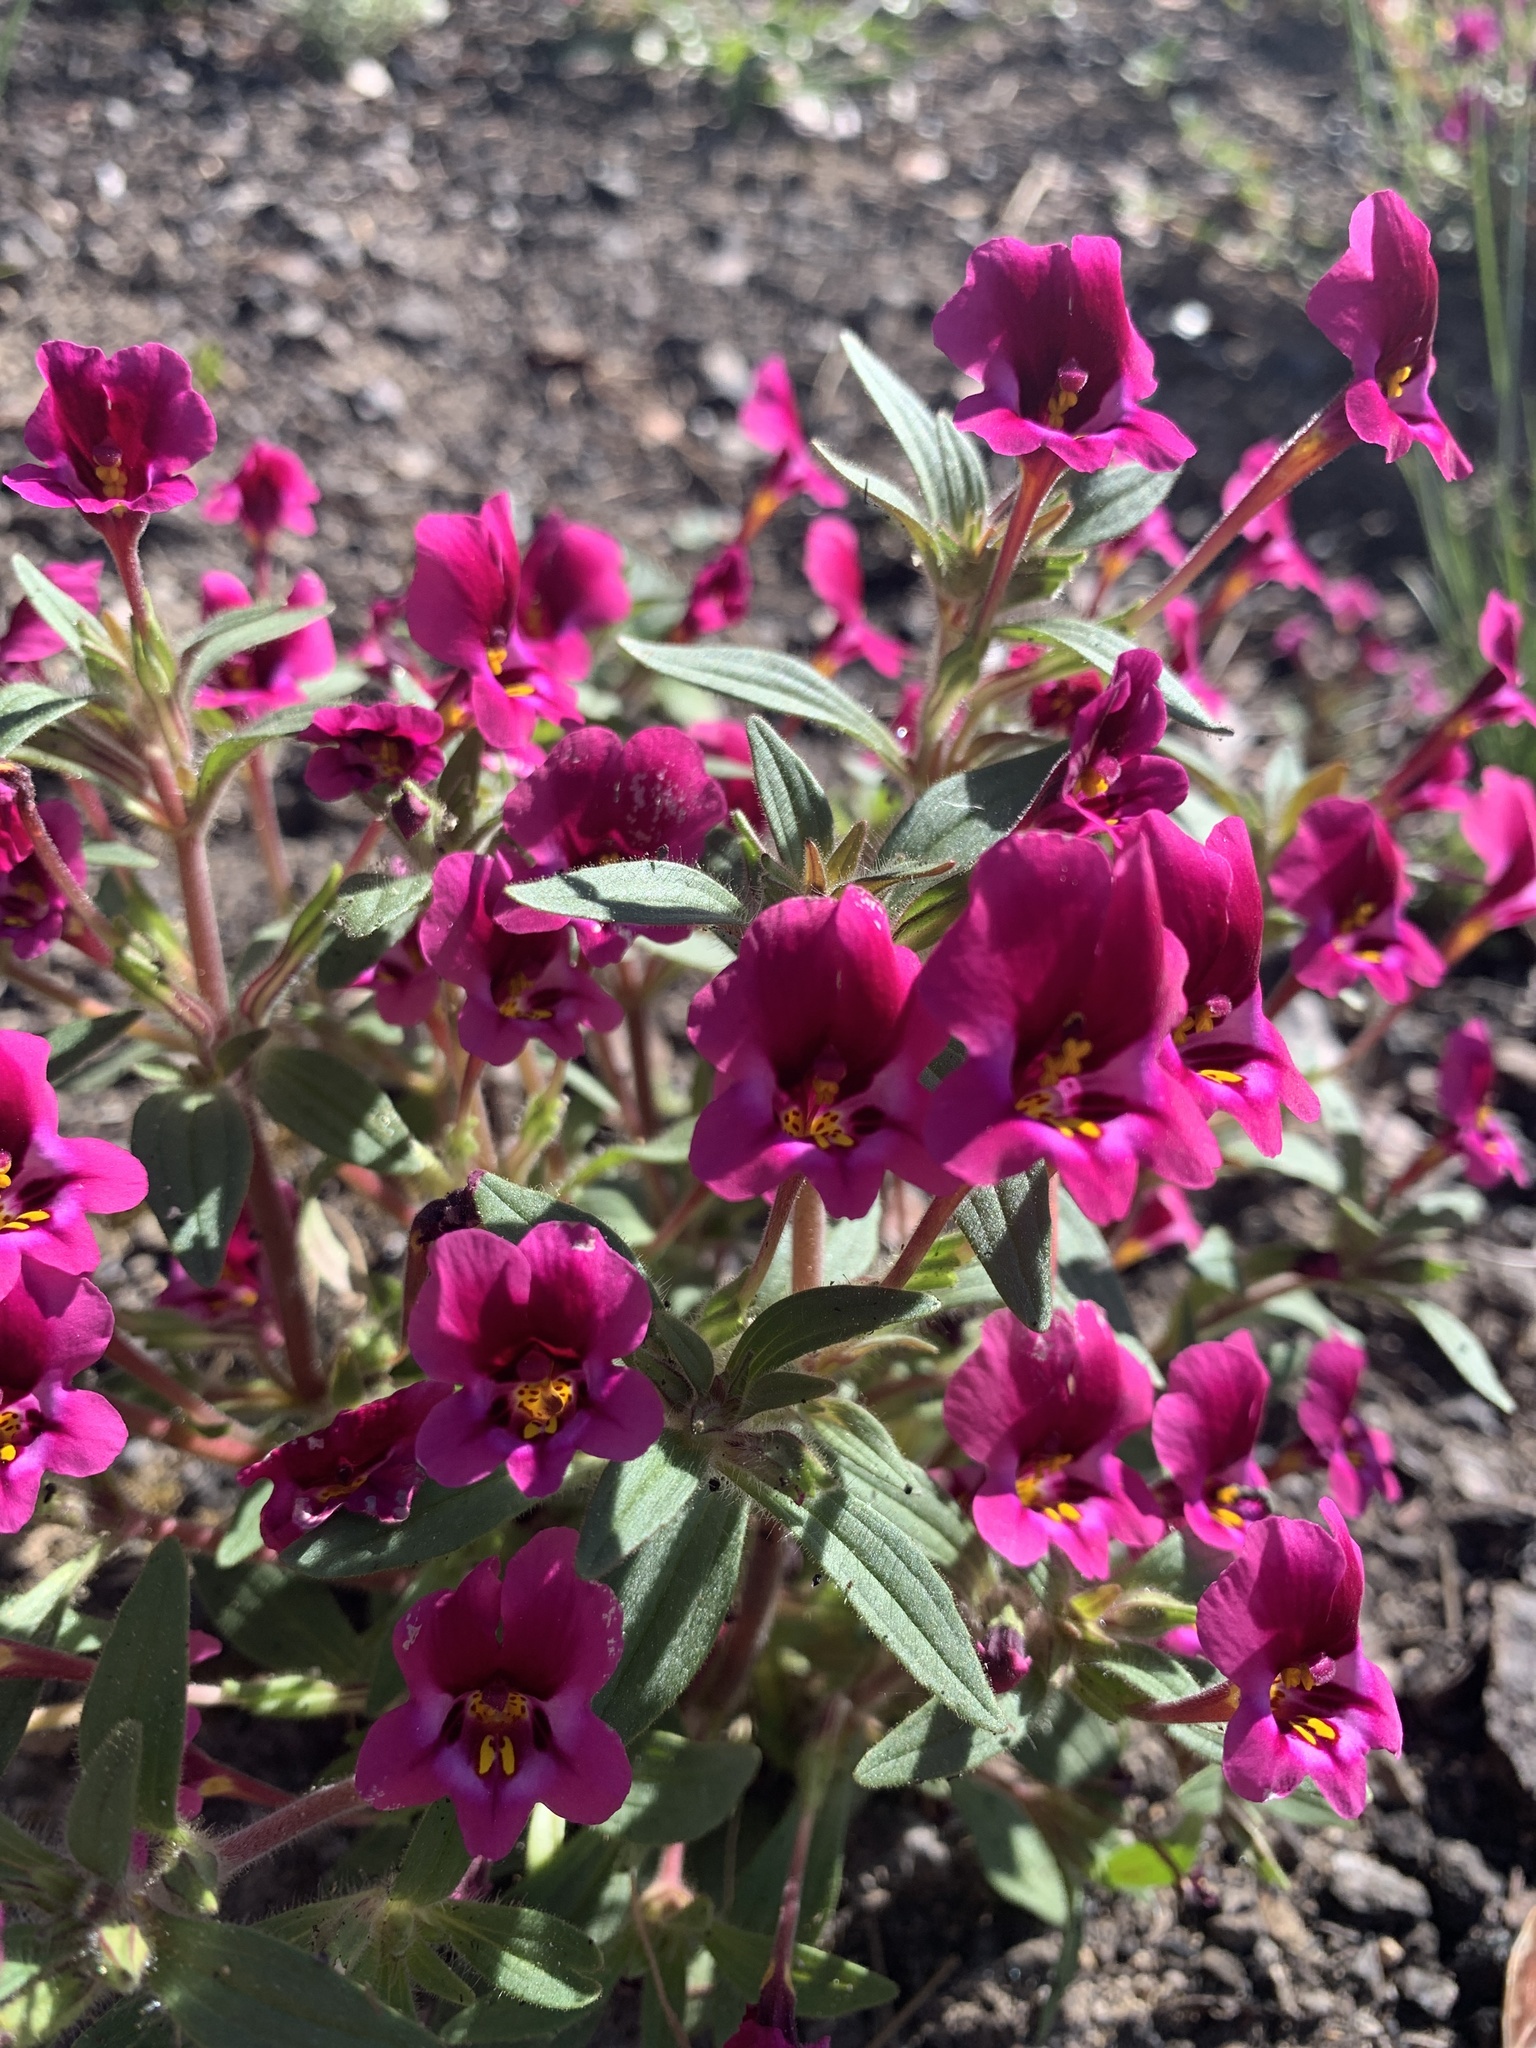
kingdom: Plantae
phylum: Tracheophyta
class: Magnoliopsida
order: Lamiales
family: Phrymaceae
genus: Diplacus
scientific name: Diplacus kelloggii
